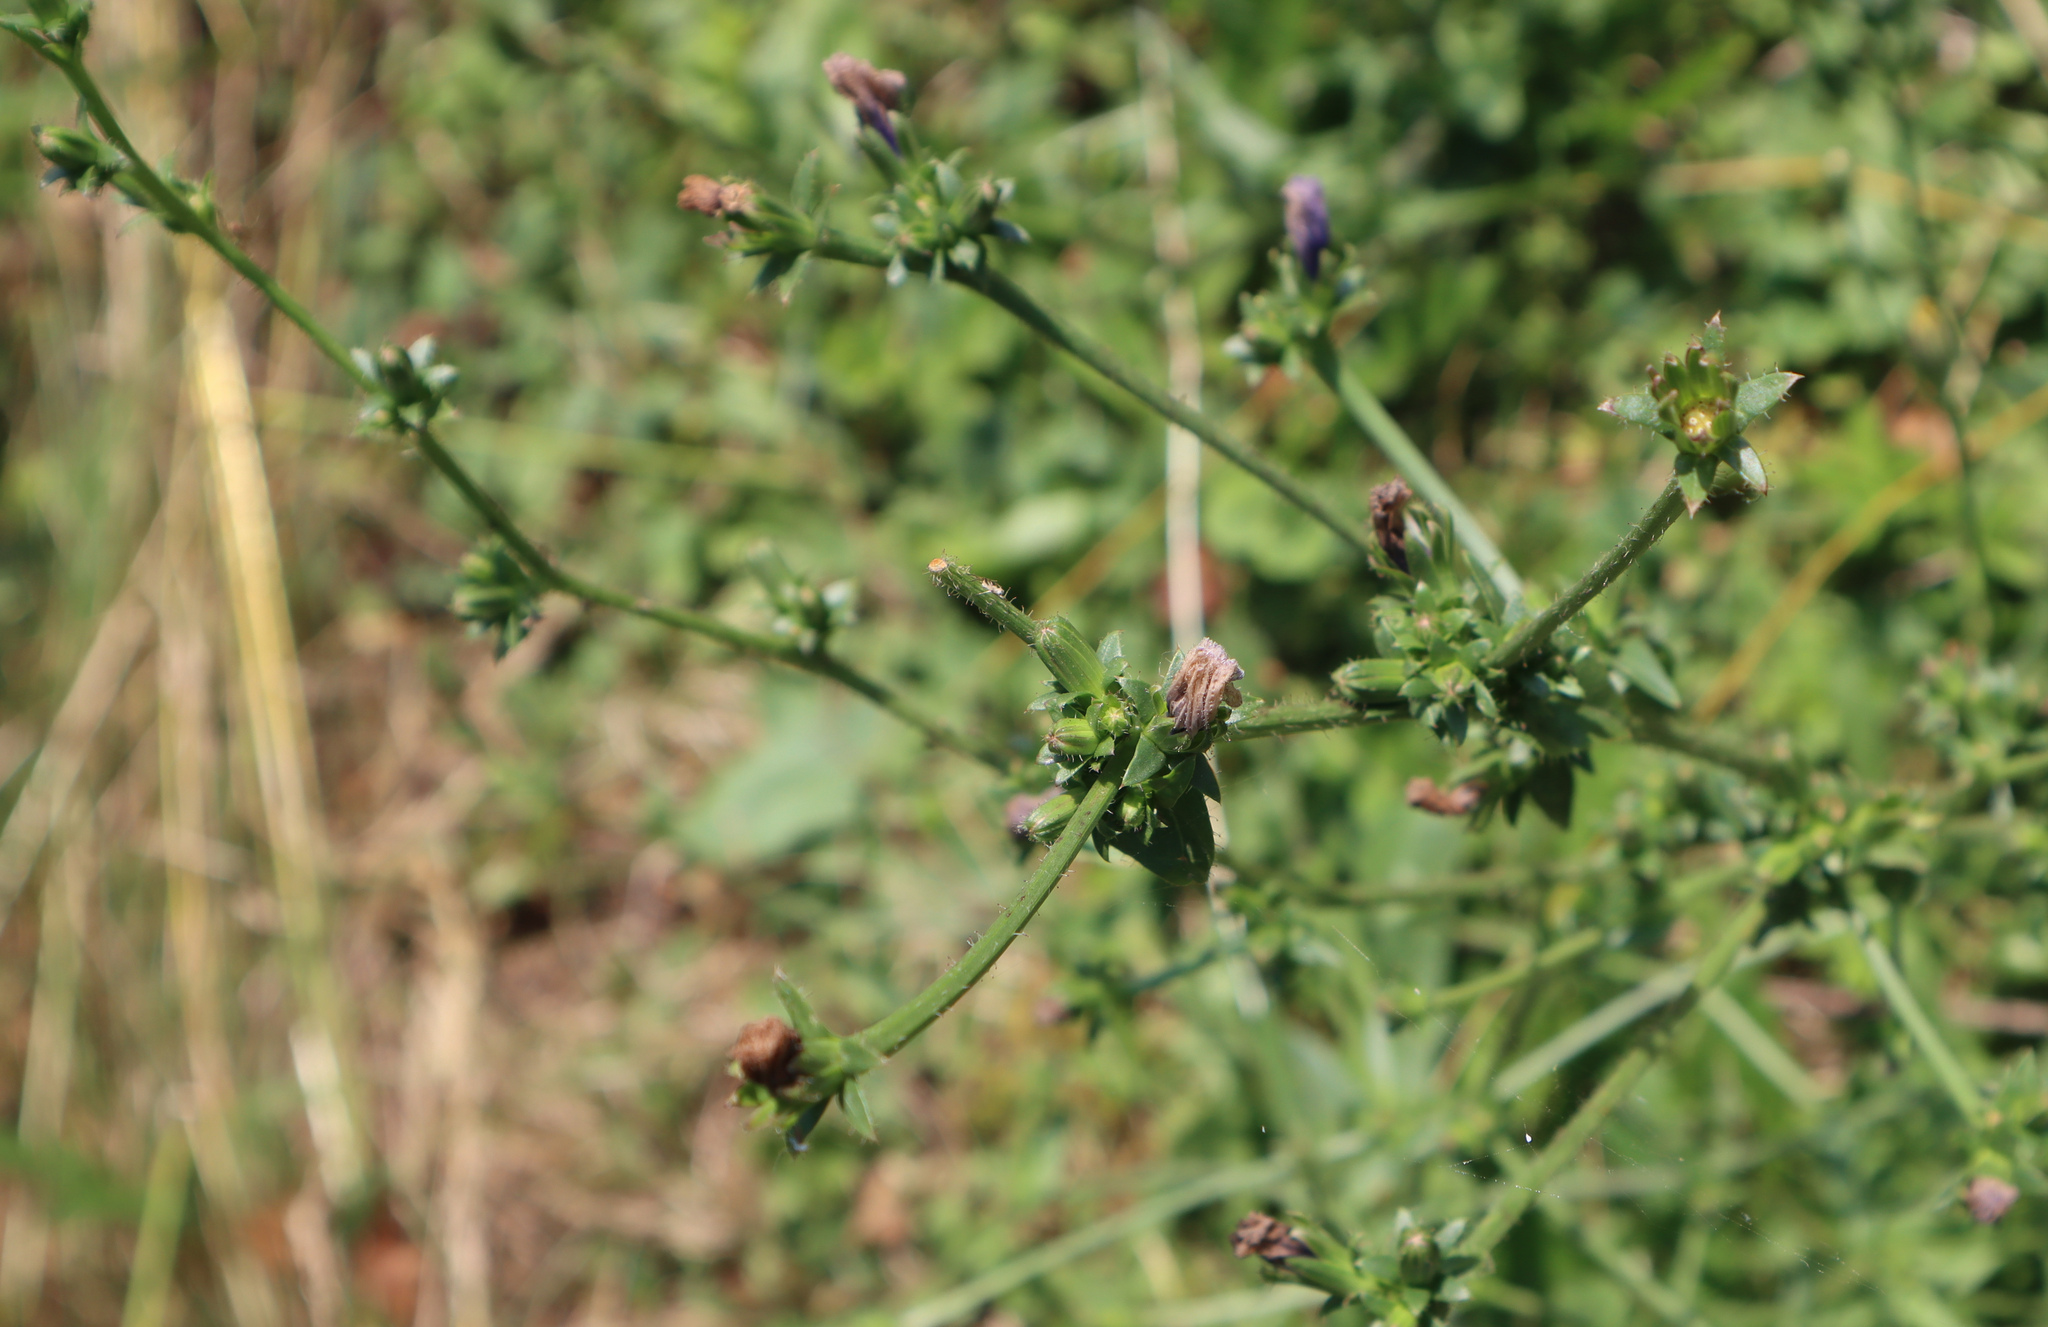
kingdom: Plantae
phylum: Tracheophyta
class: Magnoliopsida
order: Asterales
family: Asteraceae
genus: Cichorium
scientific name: Cichorium intybus
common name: Chicory
